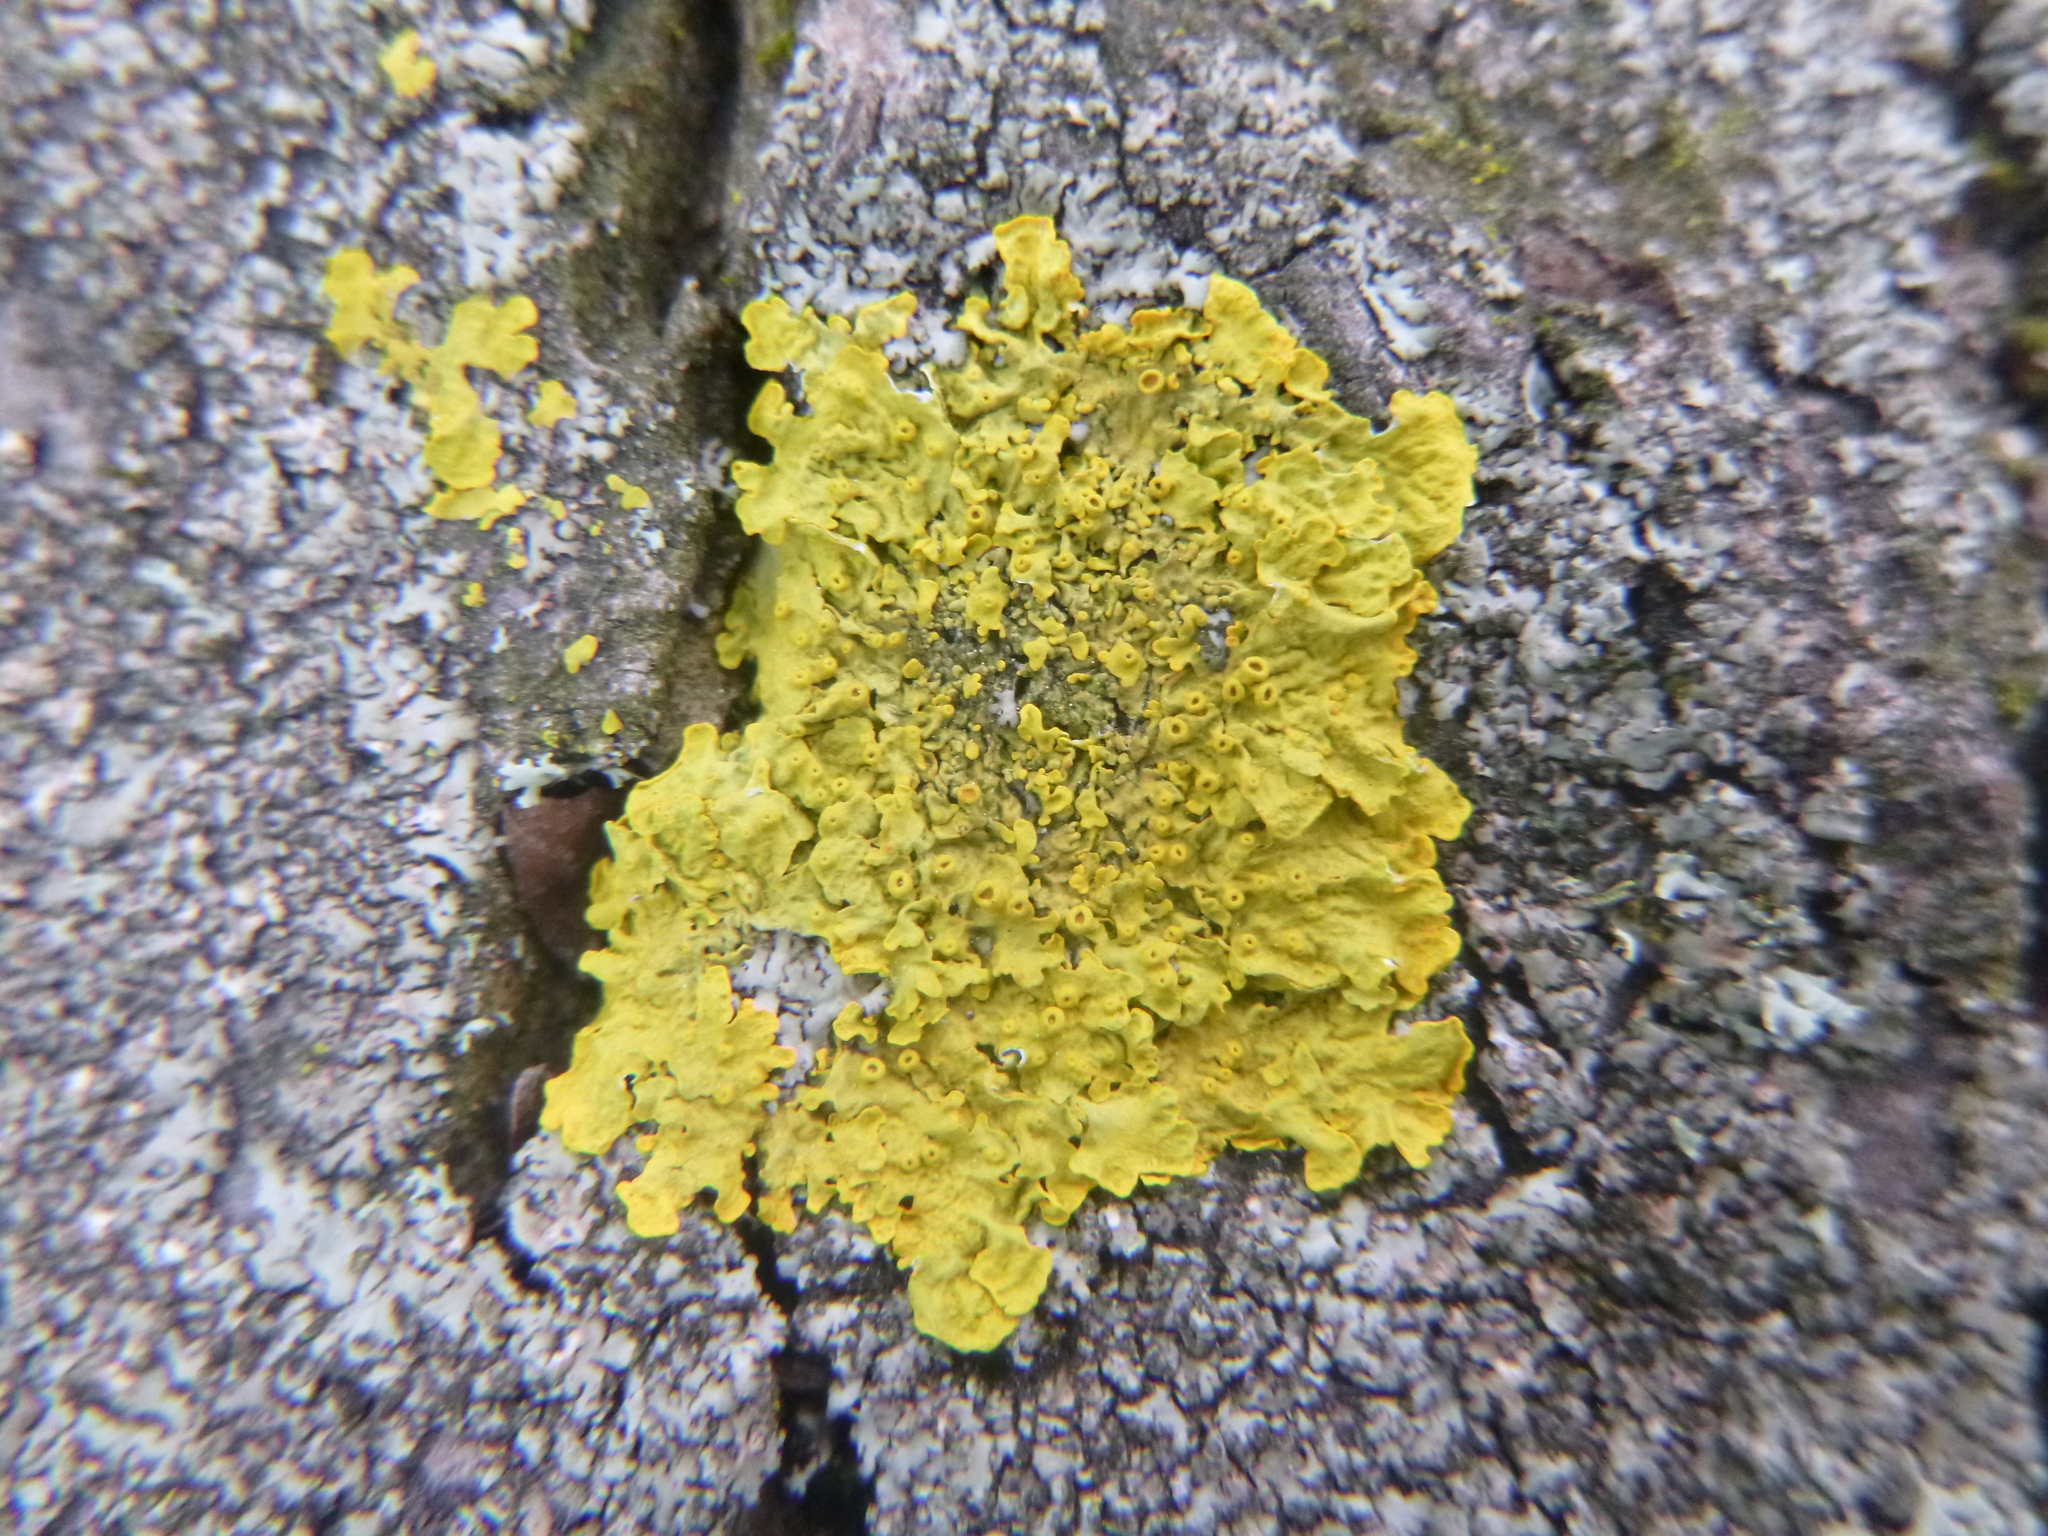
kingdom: Fungi
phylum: Ascomycota
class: Lecanoromycetes
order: Teloschistales
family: Teloschistaceae
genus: Xanthoria
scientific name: Xanthoria parietina
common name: Common orange lichen
